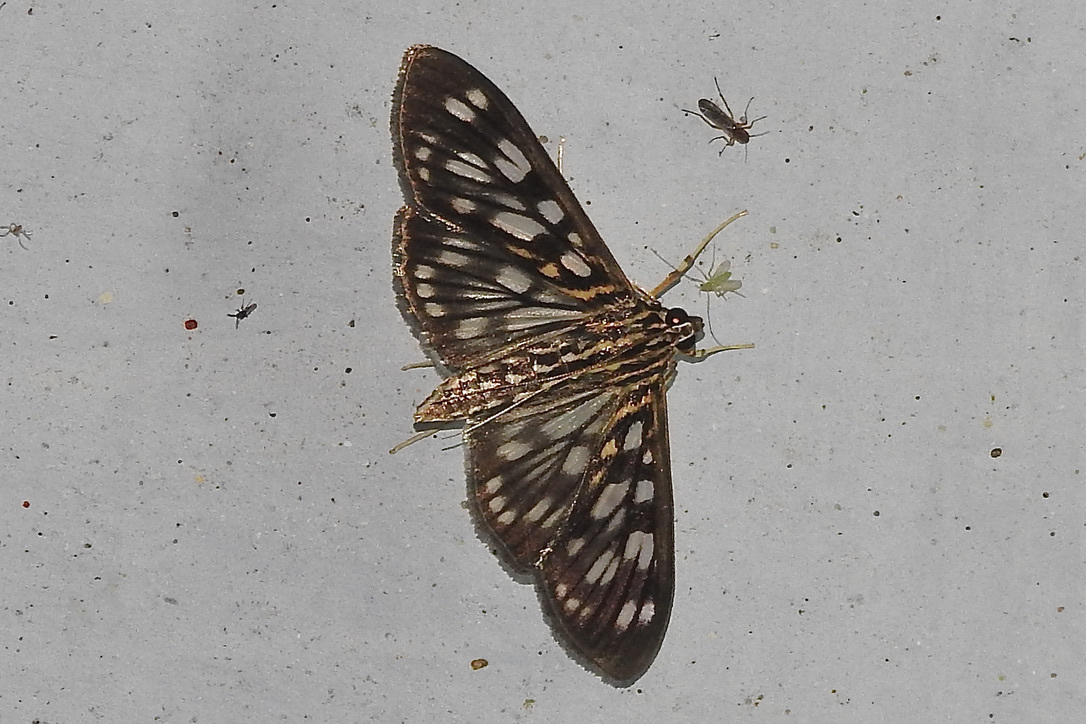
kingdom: Animalia
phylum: Arthropoda
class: Insecta
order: Lepidoptera
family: Crambidae
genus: Pygospila
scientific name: Pygospila tyres
